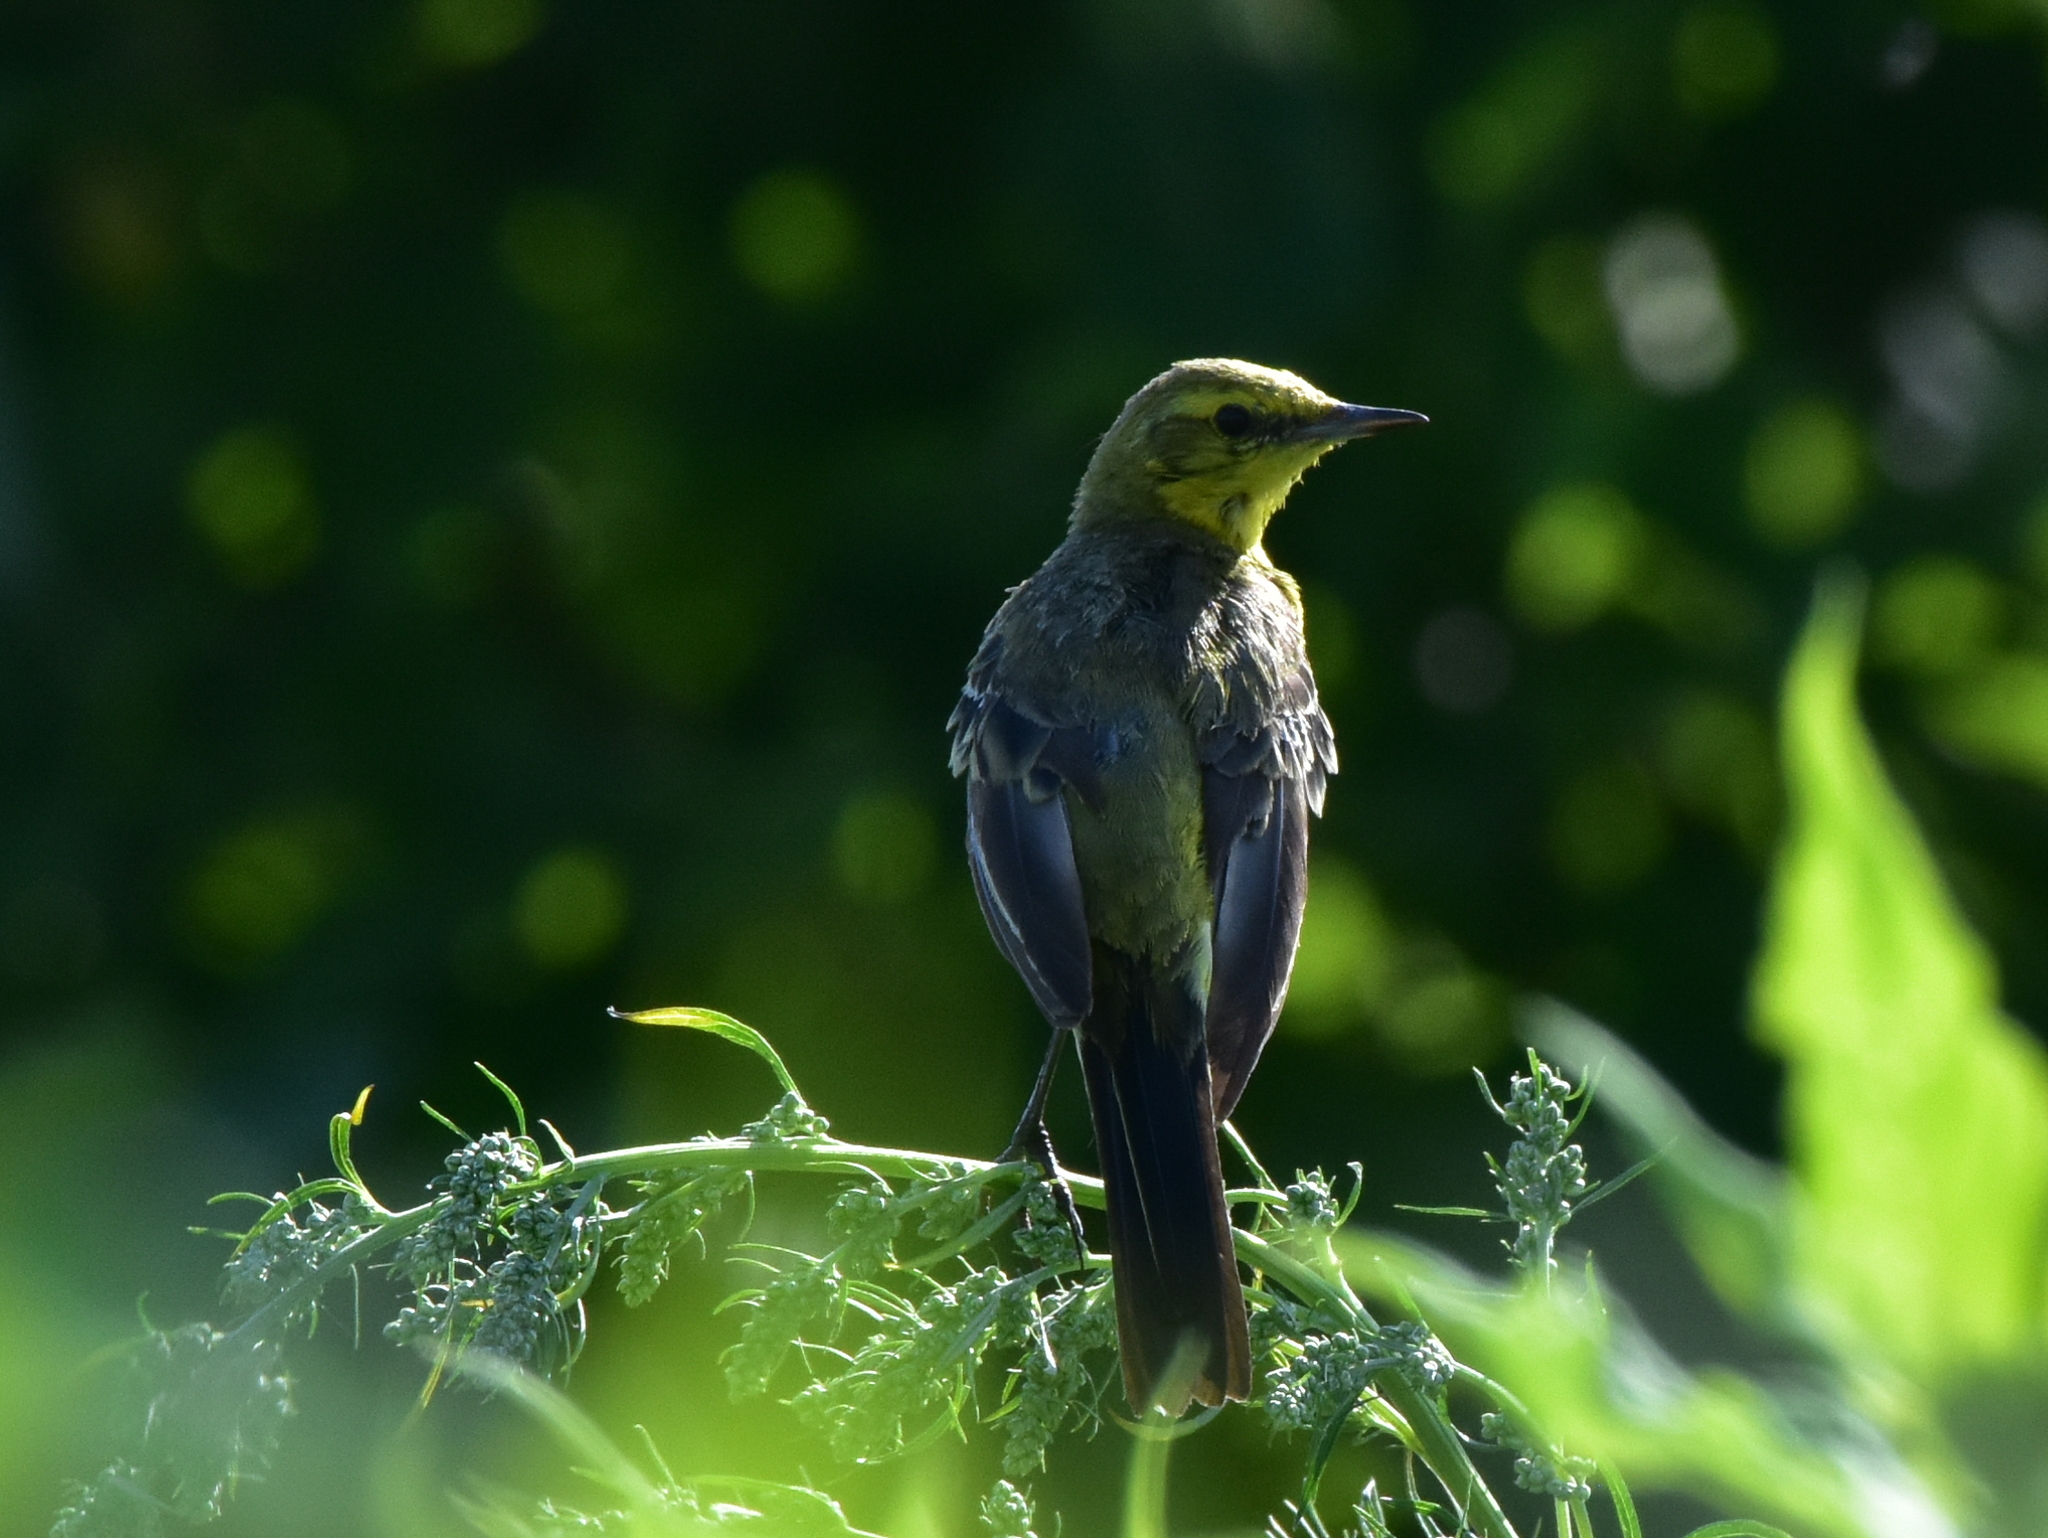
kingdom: Animalia
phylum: Chordata
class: Aves
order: Passeriformes
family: Motacillidae
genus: Motacilla
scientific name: Motacilla citreola
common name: Citrine wagtail
